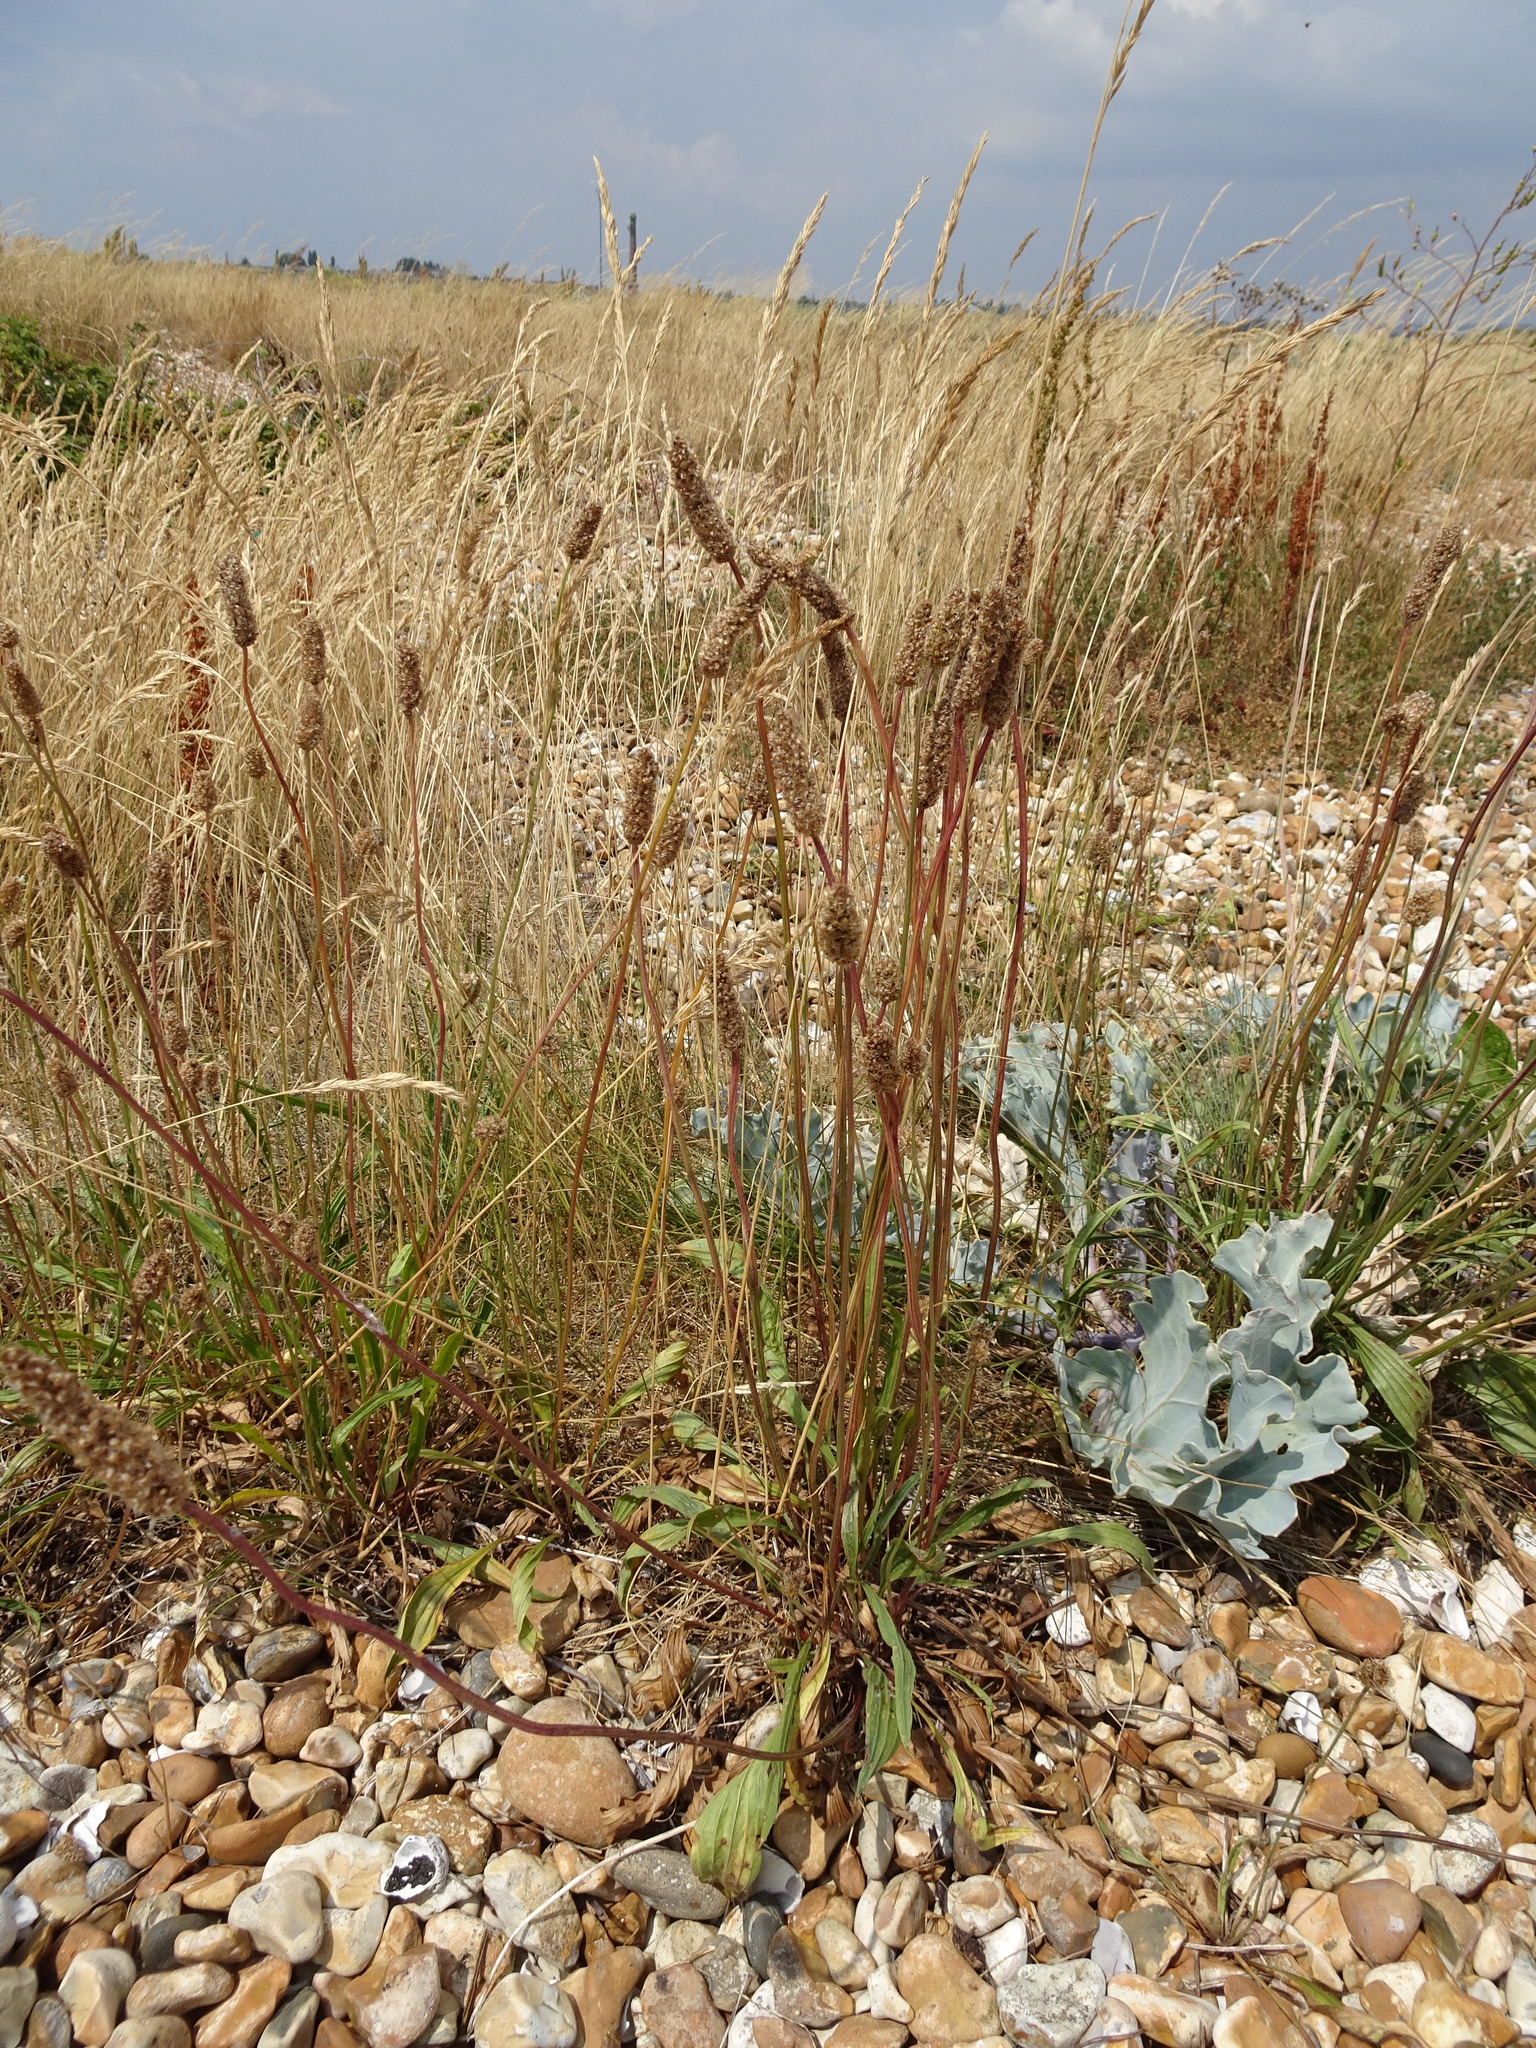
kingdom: Plantae
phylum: Tracheophyta
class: Magnoliopsida
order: Lamiales
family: Plantaginaceae
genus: Plantago
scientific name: Plantago lanceolata
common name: Ribwort plantain
